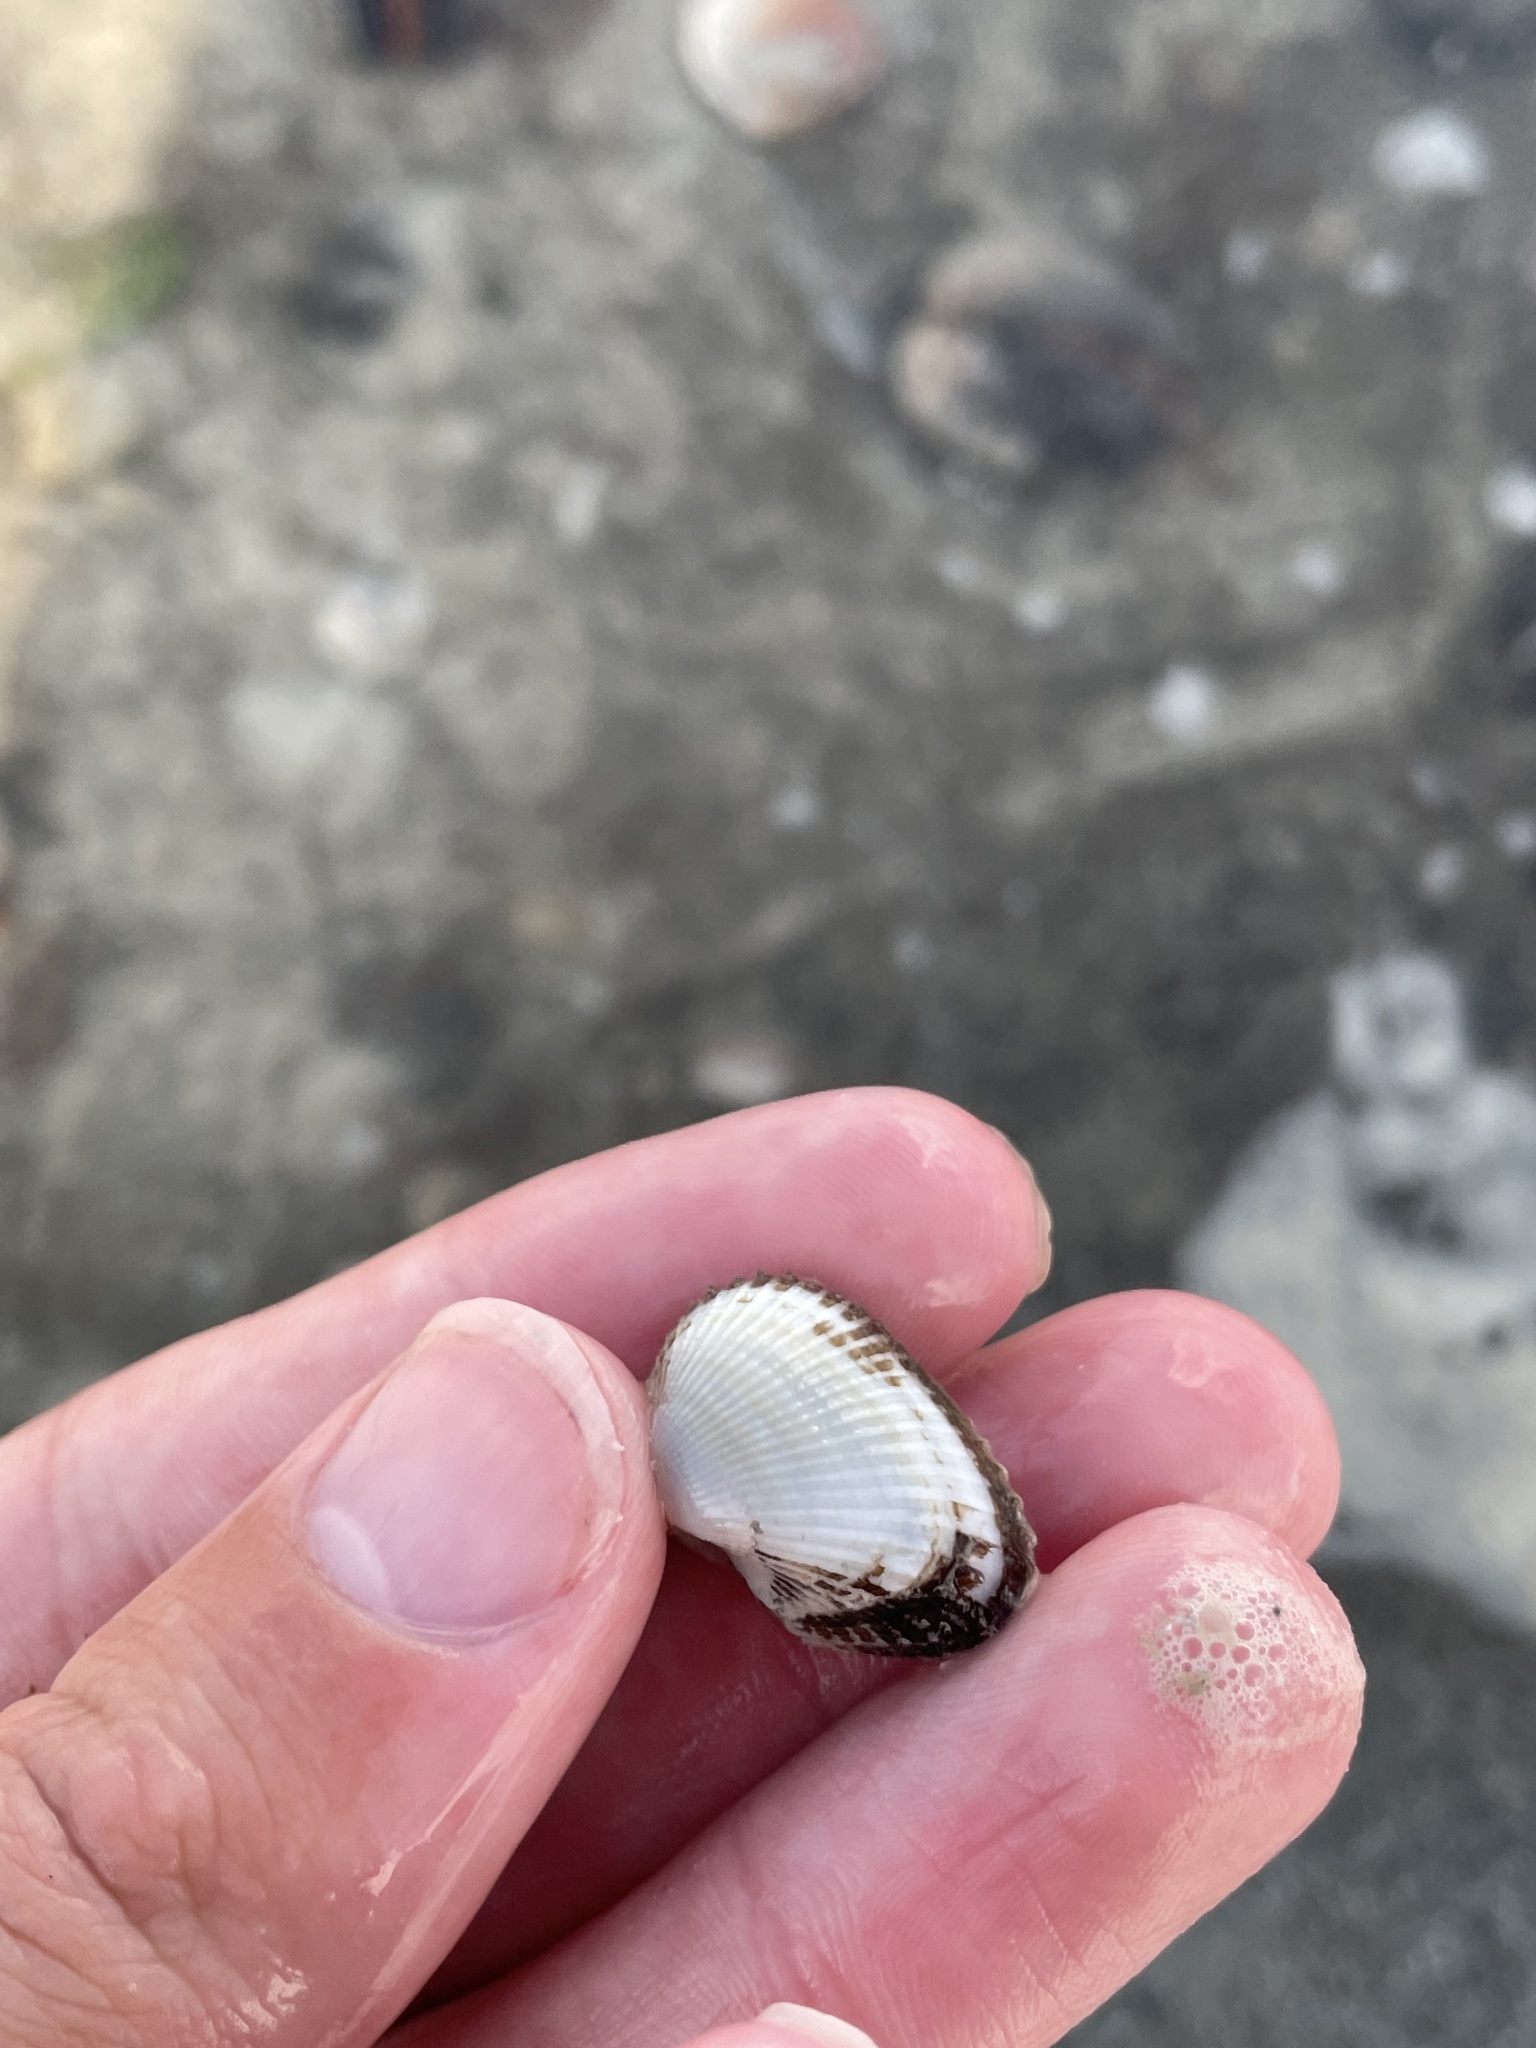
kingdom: Animalia
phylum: Mollusca
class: Bivalvia
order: Arcida
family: Arcidae
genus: Anadara
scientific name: Anadara transversa
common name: Transverse ark
